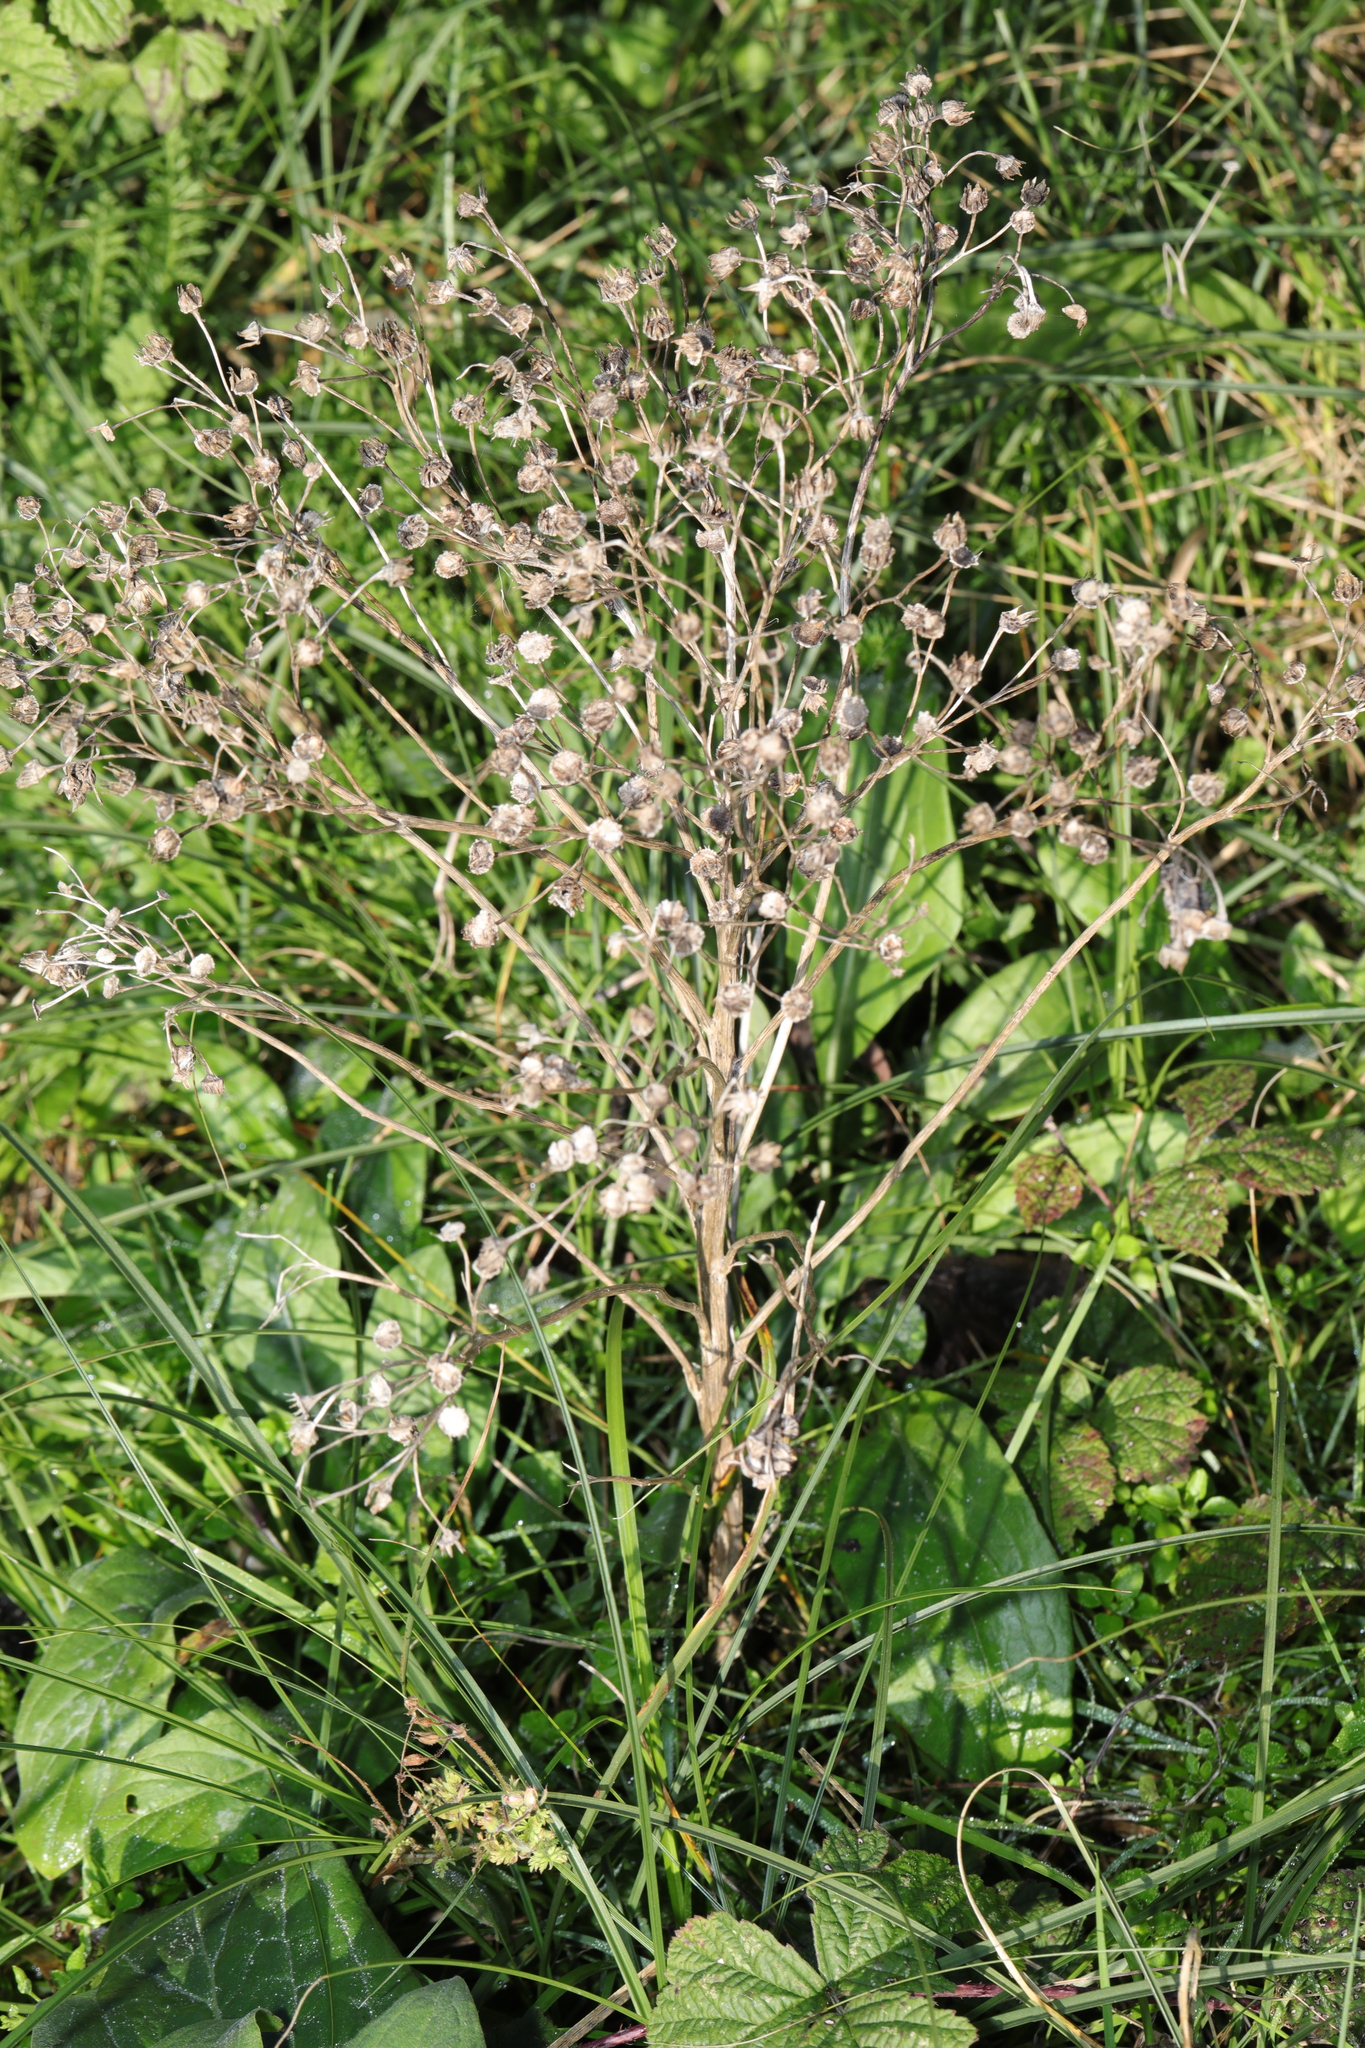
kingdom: Plantae
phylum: Tracheophyta
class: Magnoliopsida
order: Boraginales
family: Boraginaceae
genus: Cynoglossum
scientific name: Cynoglossum officinale
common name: Hound's-tongue
